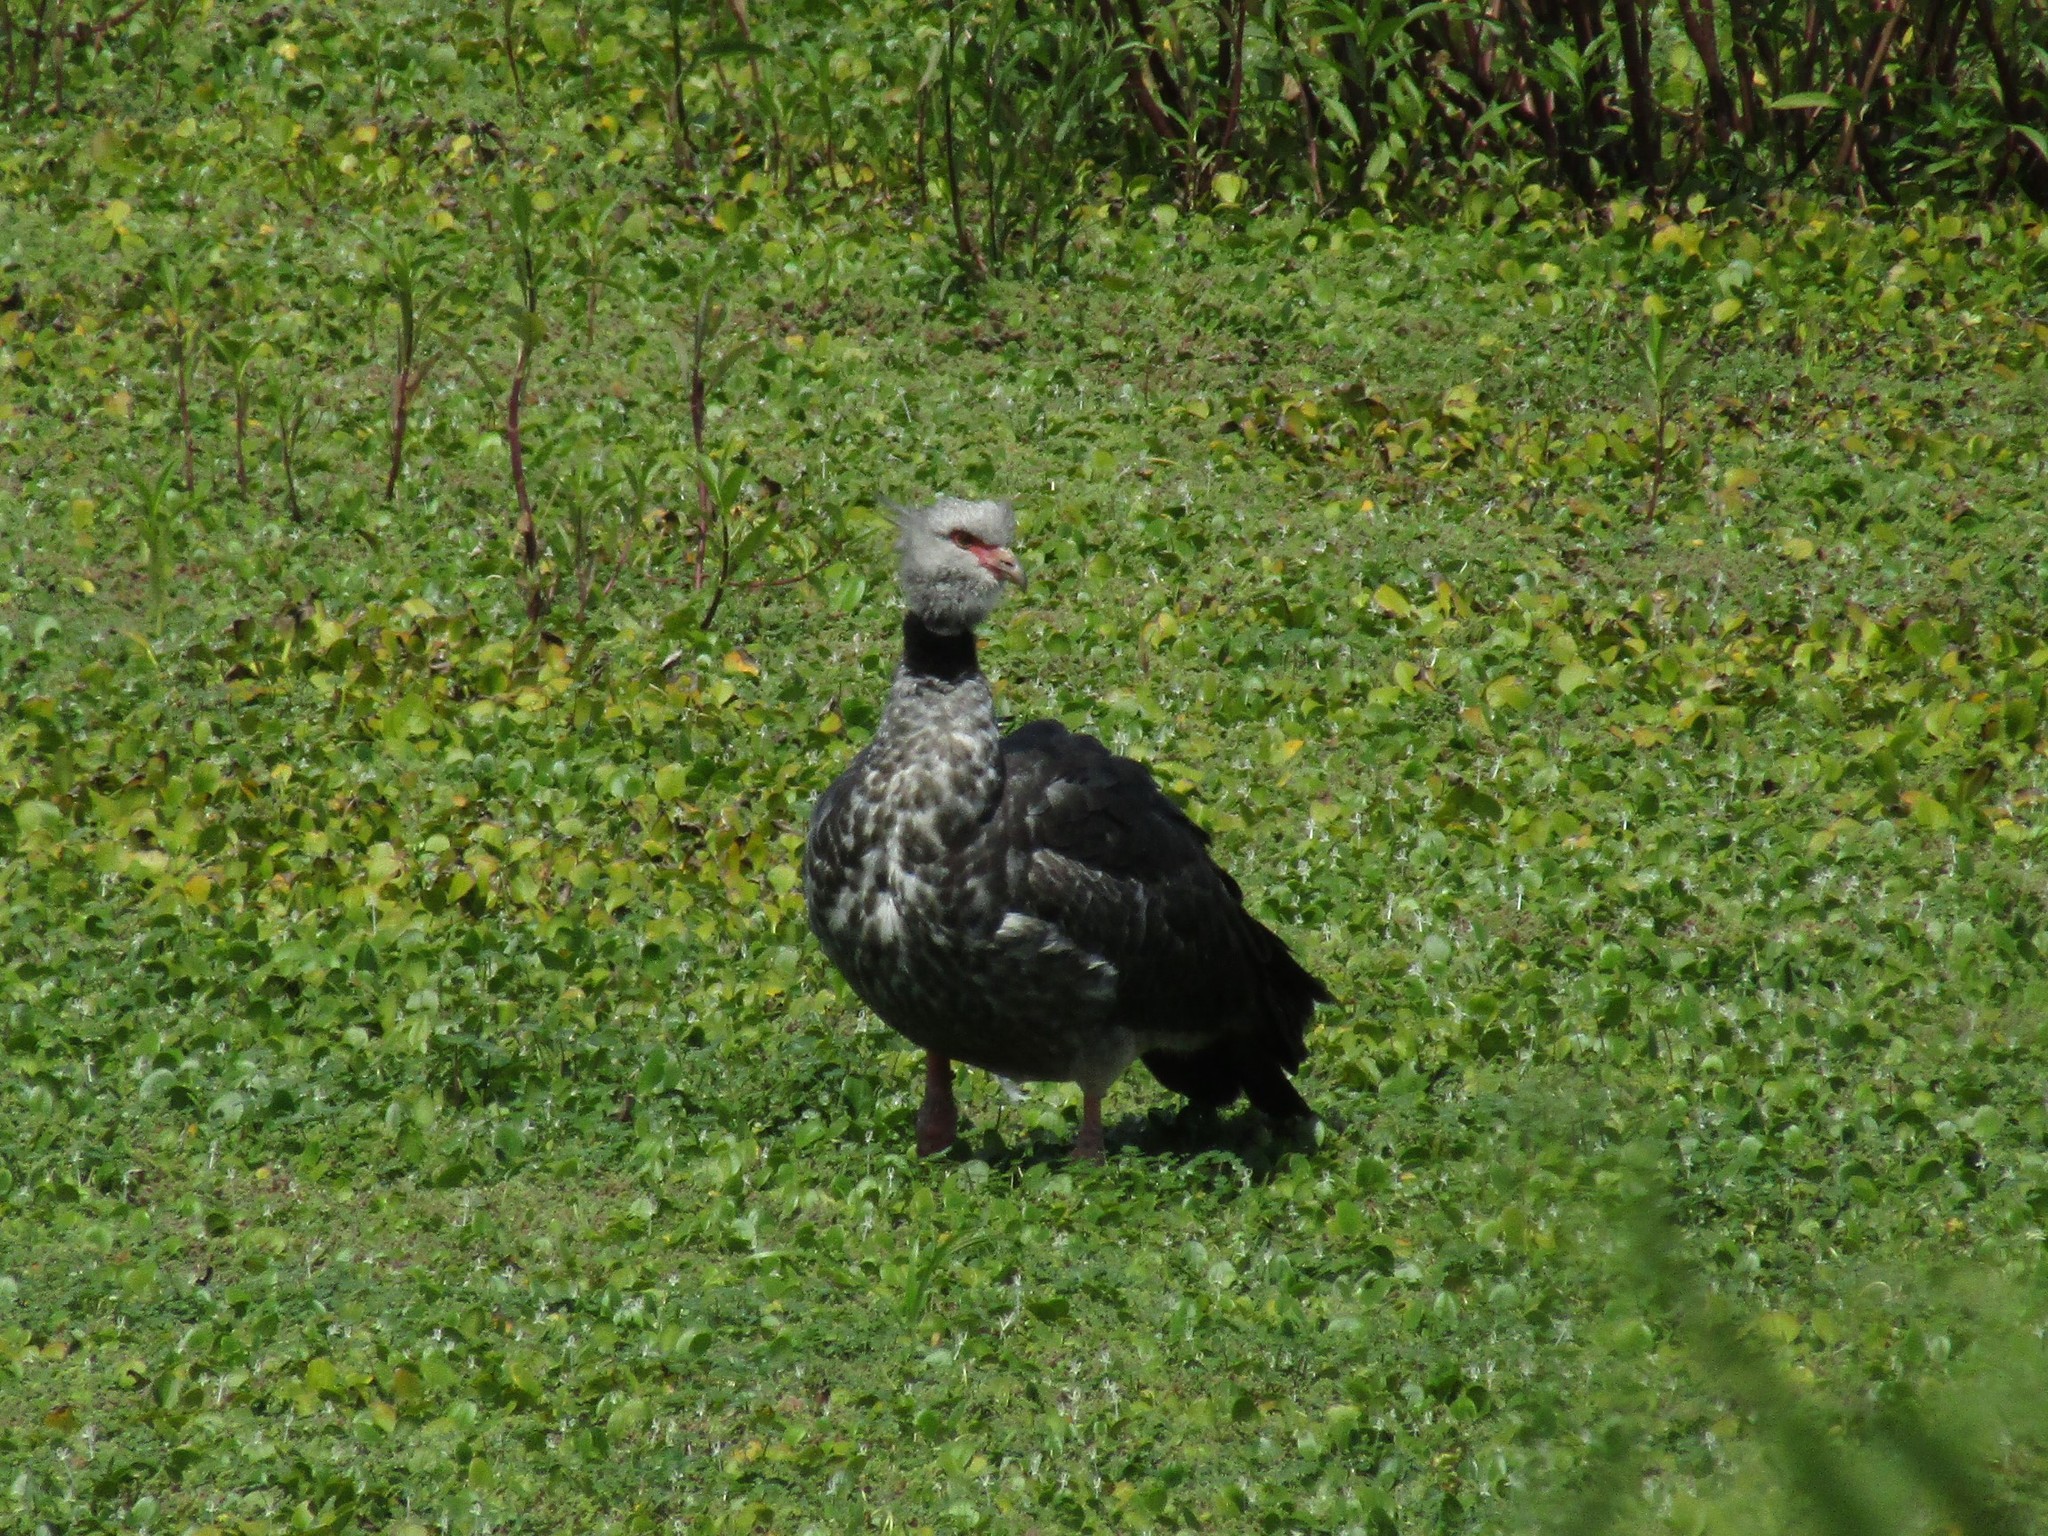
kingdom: Animalia
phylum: Chordata
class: Aves
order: Anseriformes
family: Anhimidae
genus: Chauna
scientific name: Chauna torquata
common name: Southern screamer
